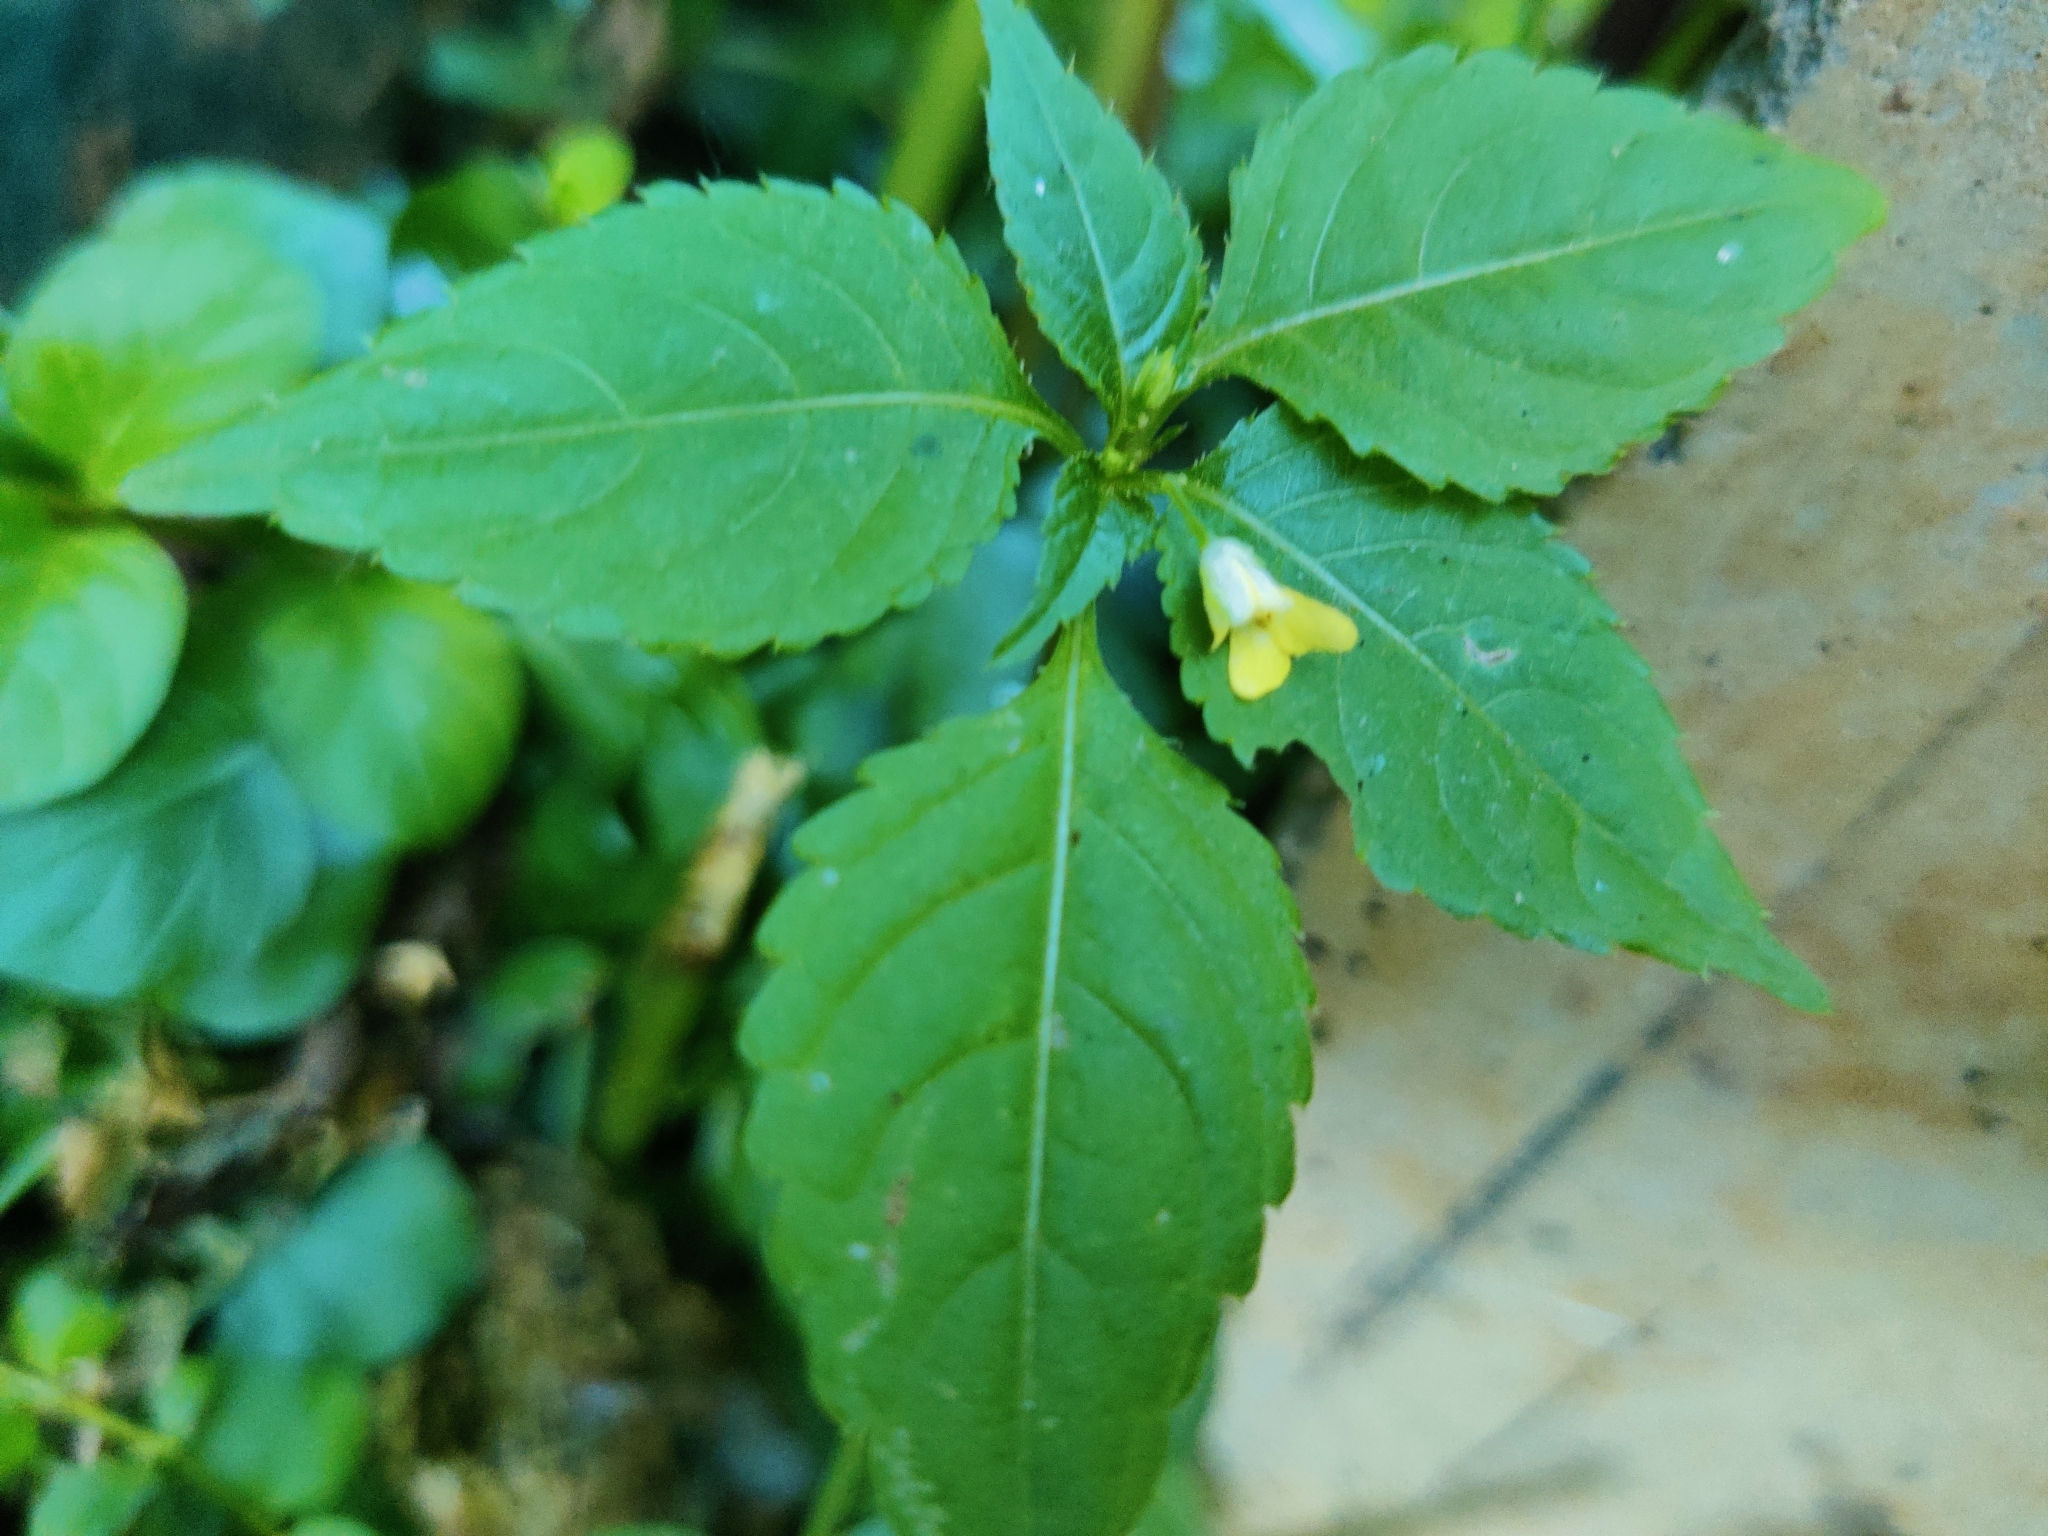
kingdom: Plantae
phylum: Tracheophyta
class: Magnoliopsida
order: Ericales
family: Balsaminaceae
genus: Impatiens
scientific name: Impatiens parviflora
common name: Small balsam
